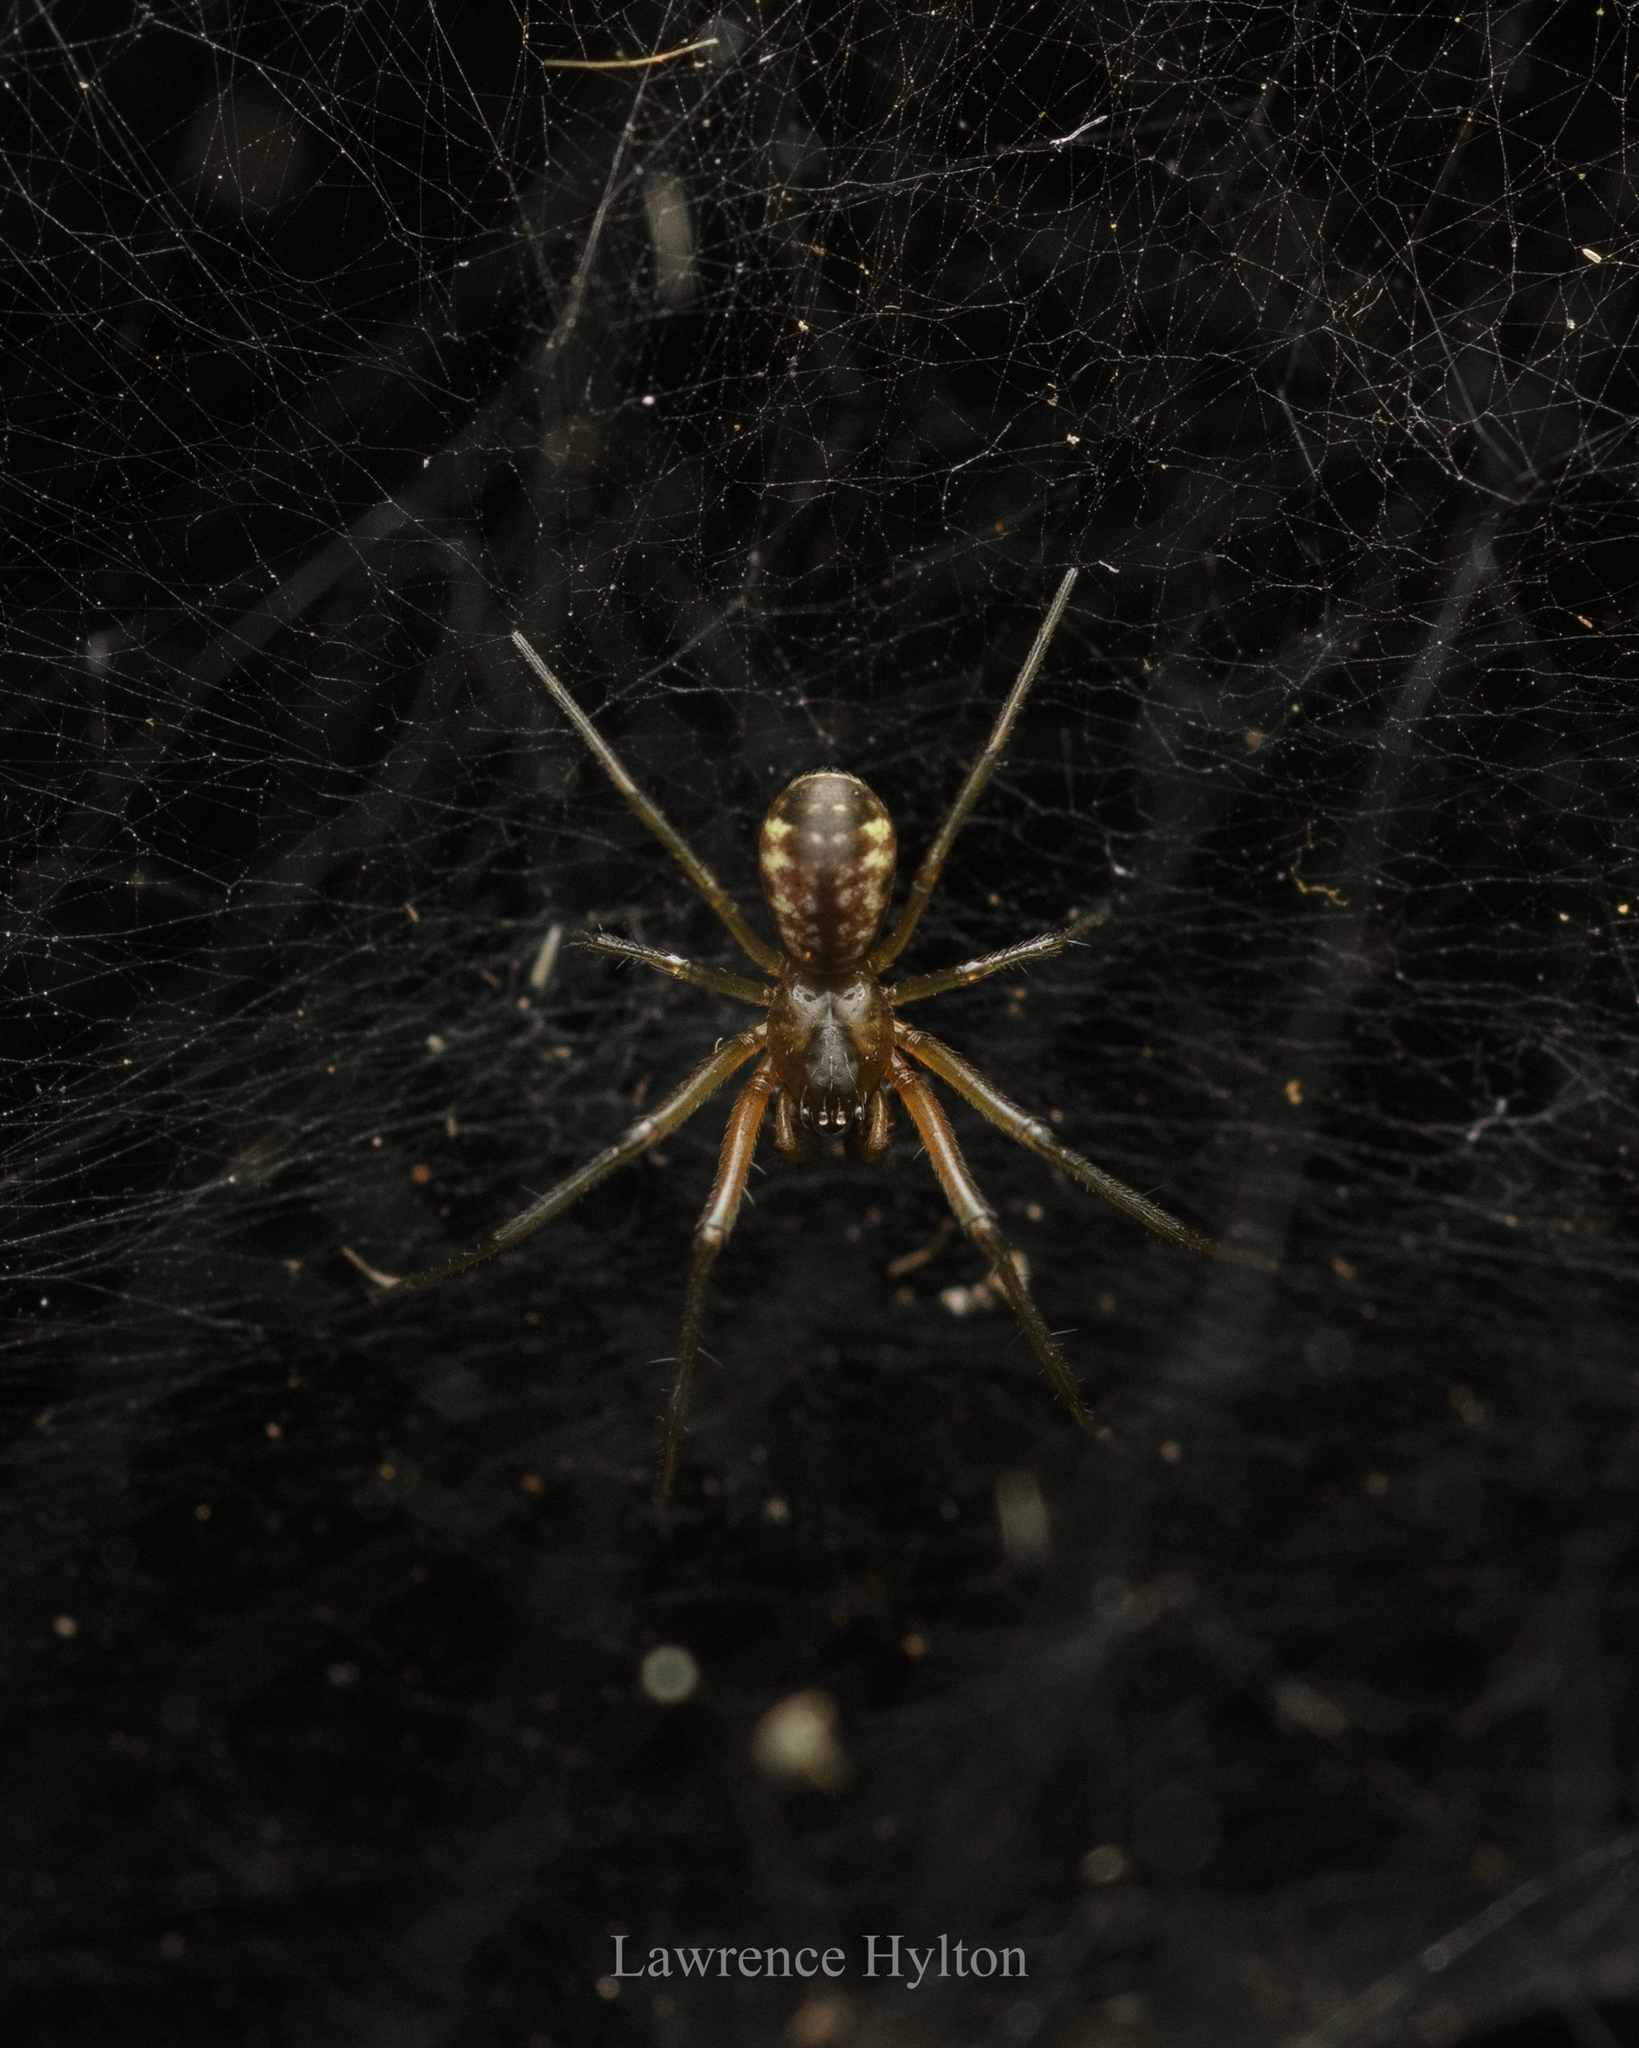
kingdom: Animalia
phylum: Arthropoda
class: Arachnida
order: Araneae
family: Linyphiidae
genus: Prosoponoides
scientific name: Prosoponoides sinense
